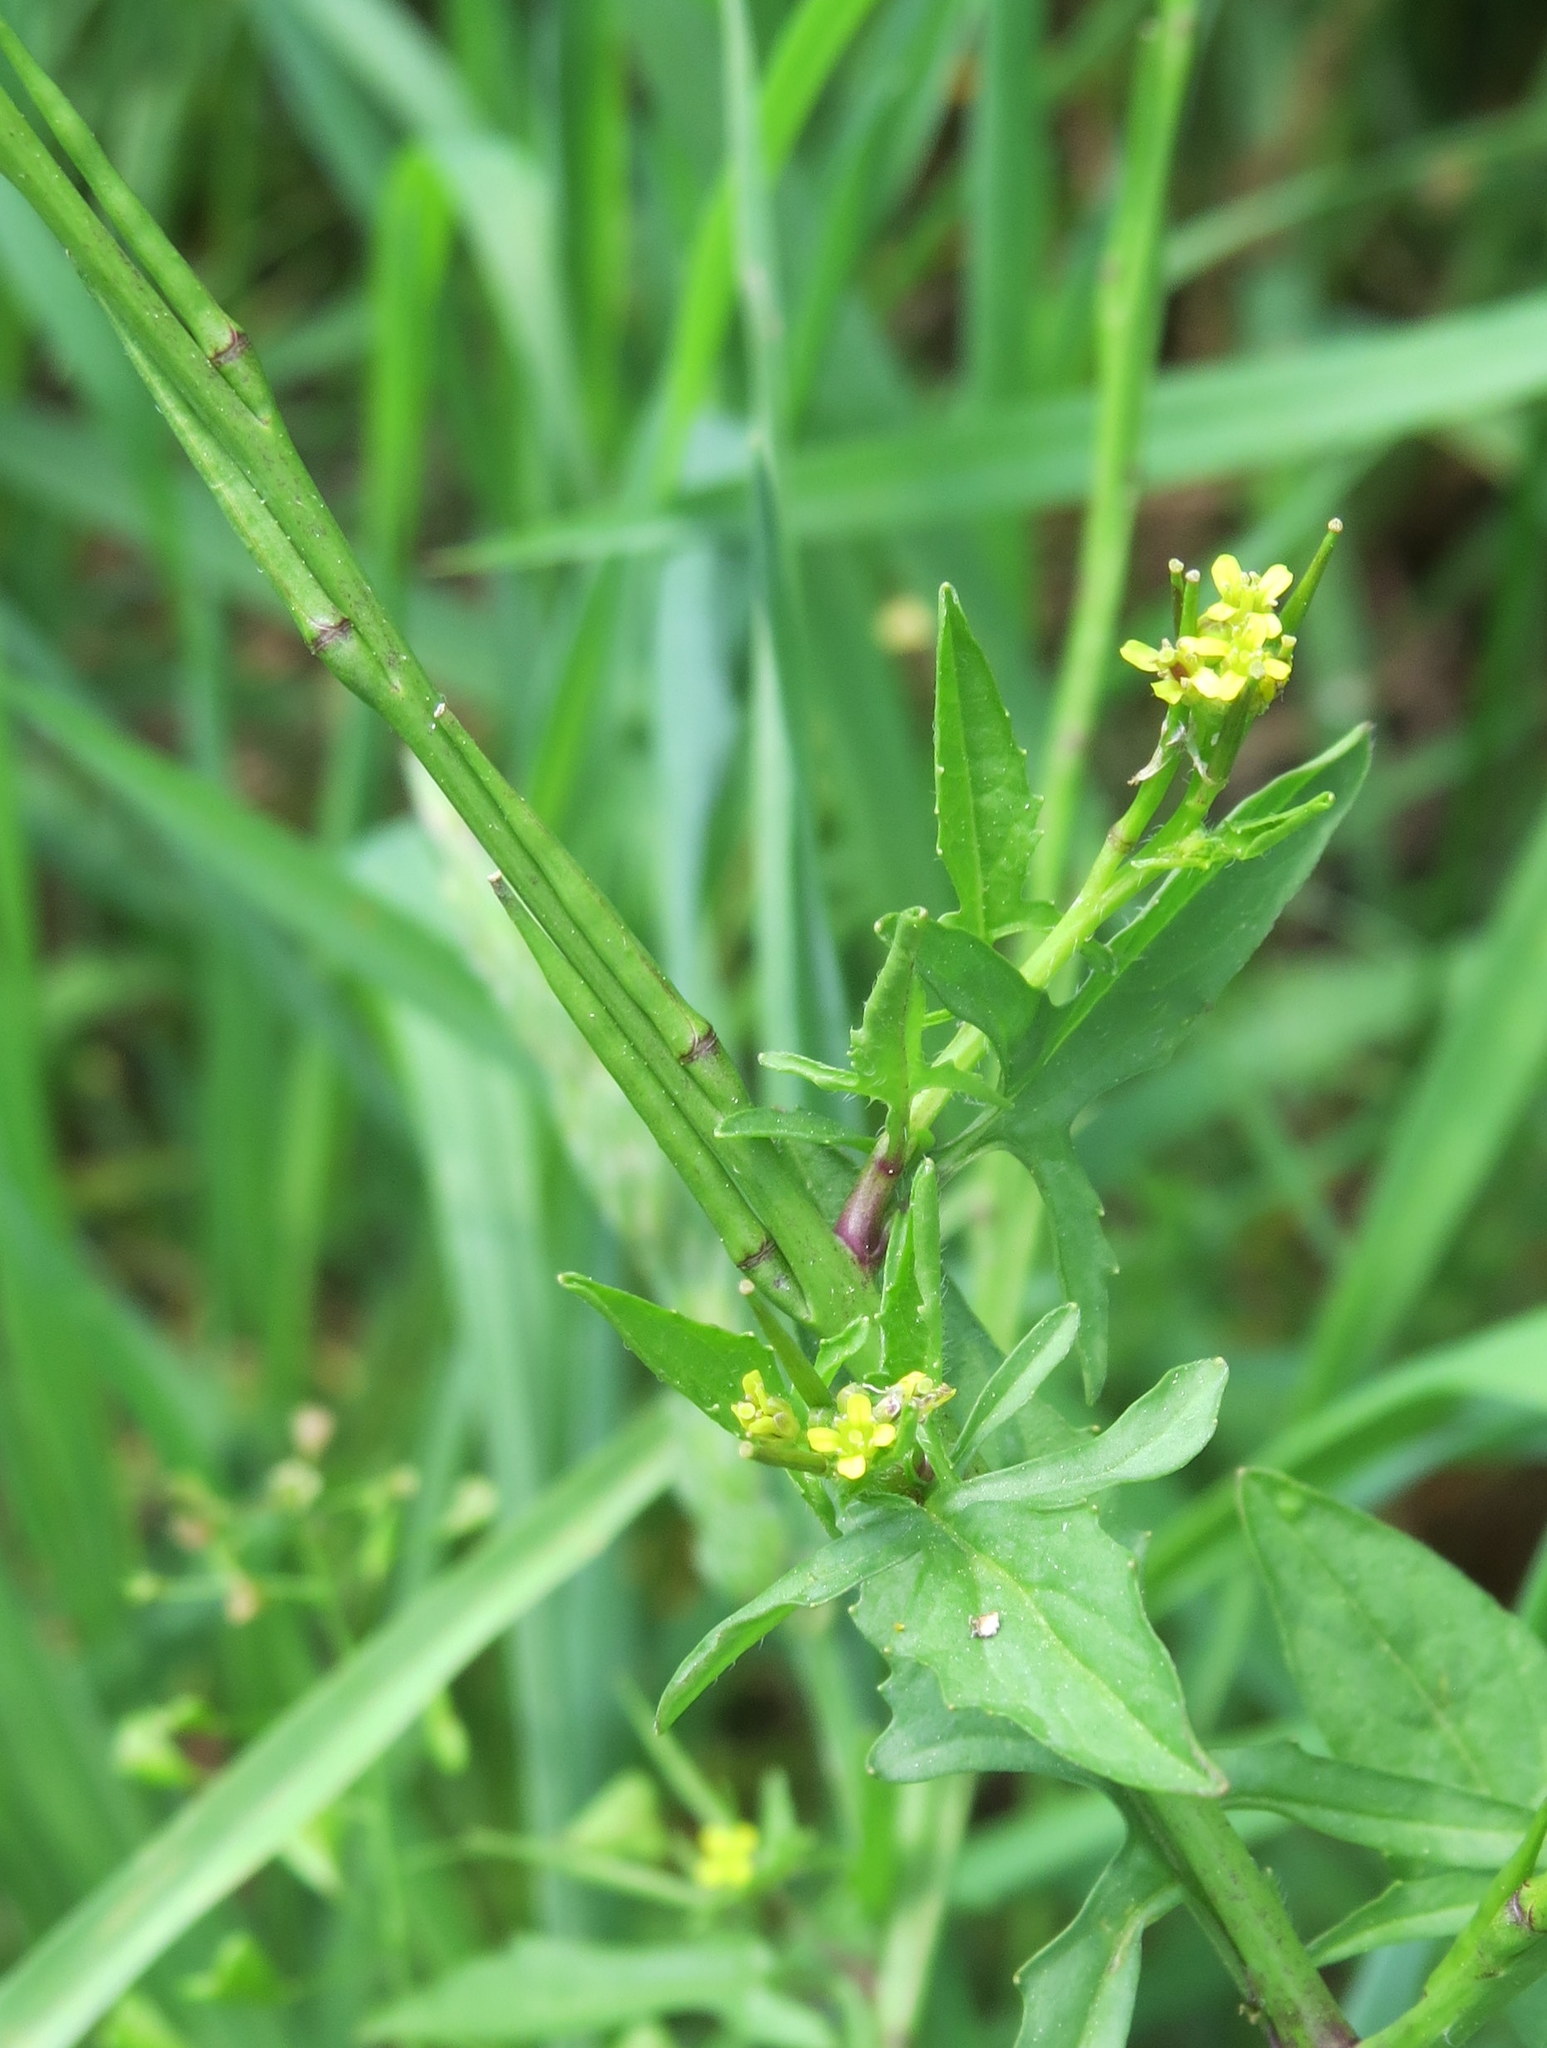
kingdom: Plantae
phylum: Tracheophyta
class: Magnoliopsida
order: Brassicales
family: Brassicaceae
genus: Sisymbrium
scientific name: Sisymbrium officinale
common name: Hedge mustard
